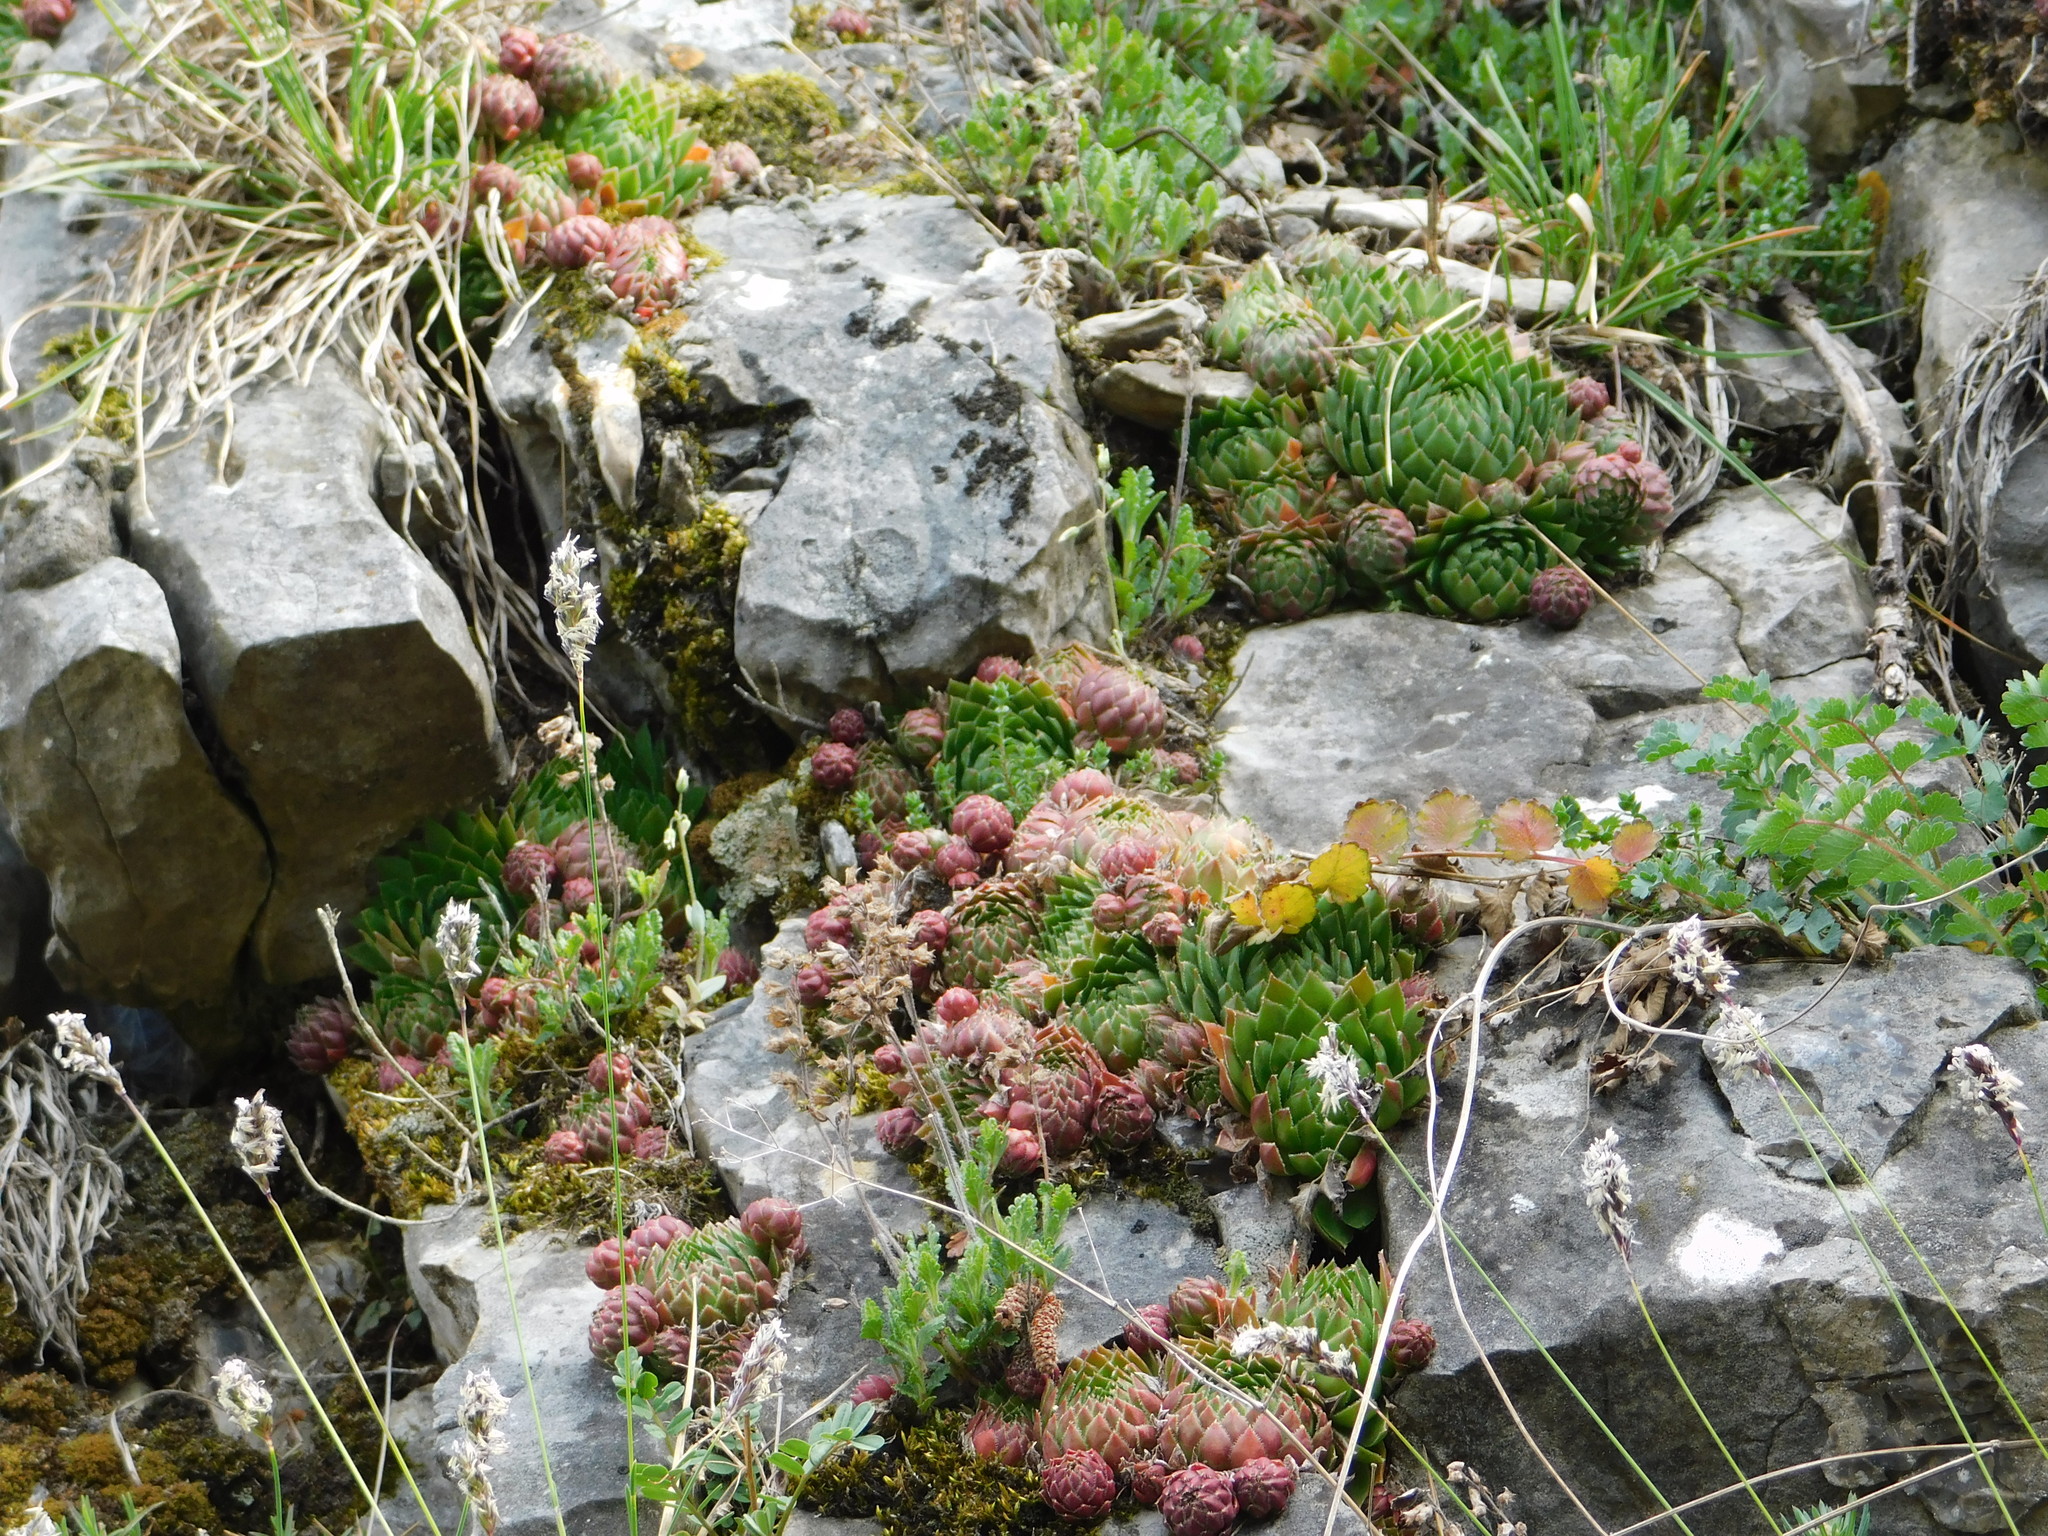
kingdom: Plantae
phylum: Tracheophyta
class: Magnoliopsida
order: Saxifragales
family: Crassulaceae
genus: Sempervivum
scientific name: Sempervivum globiferum
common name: Rolling hen-and-chicks
